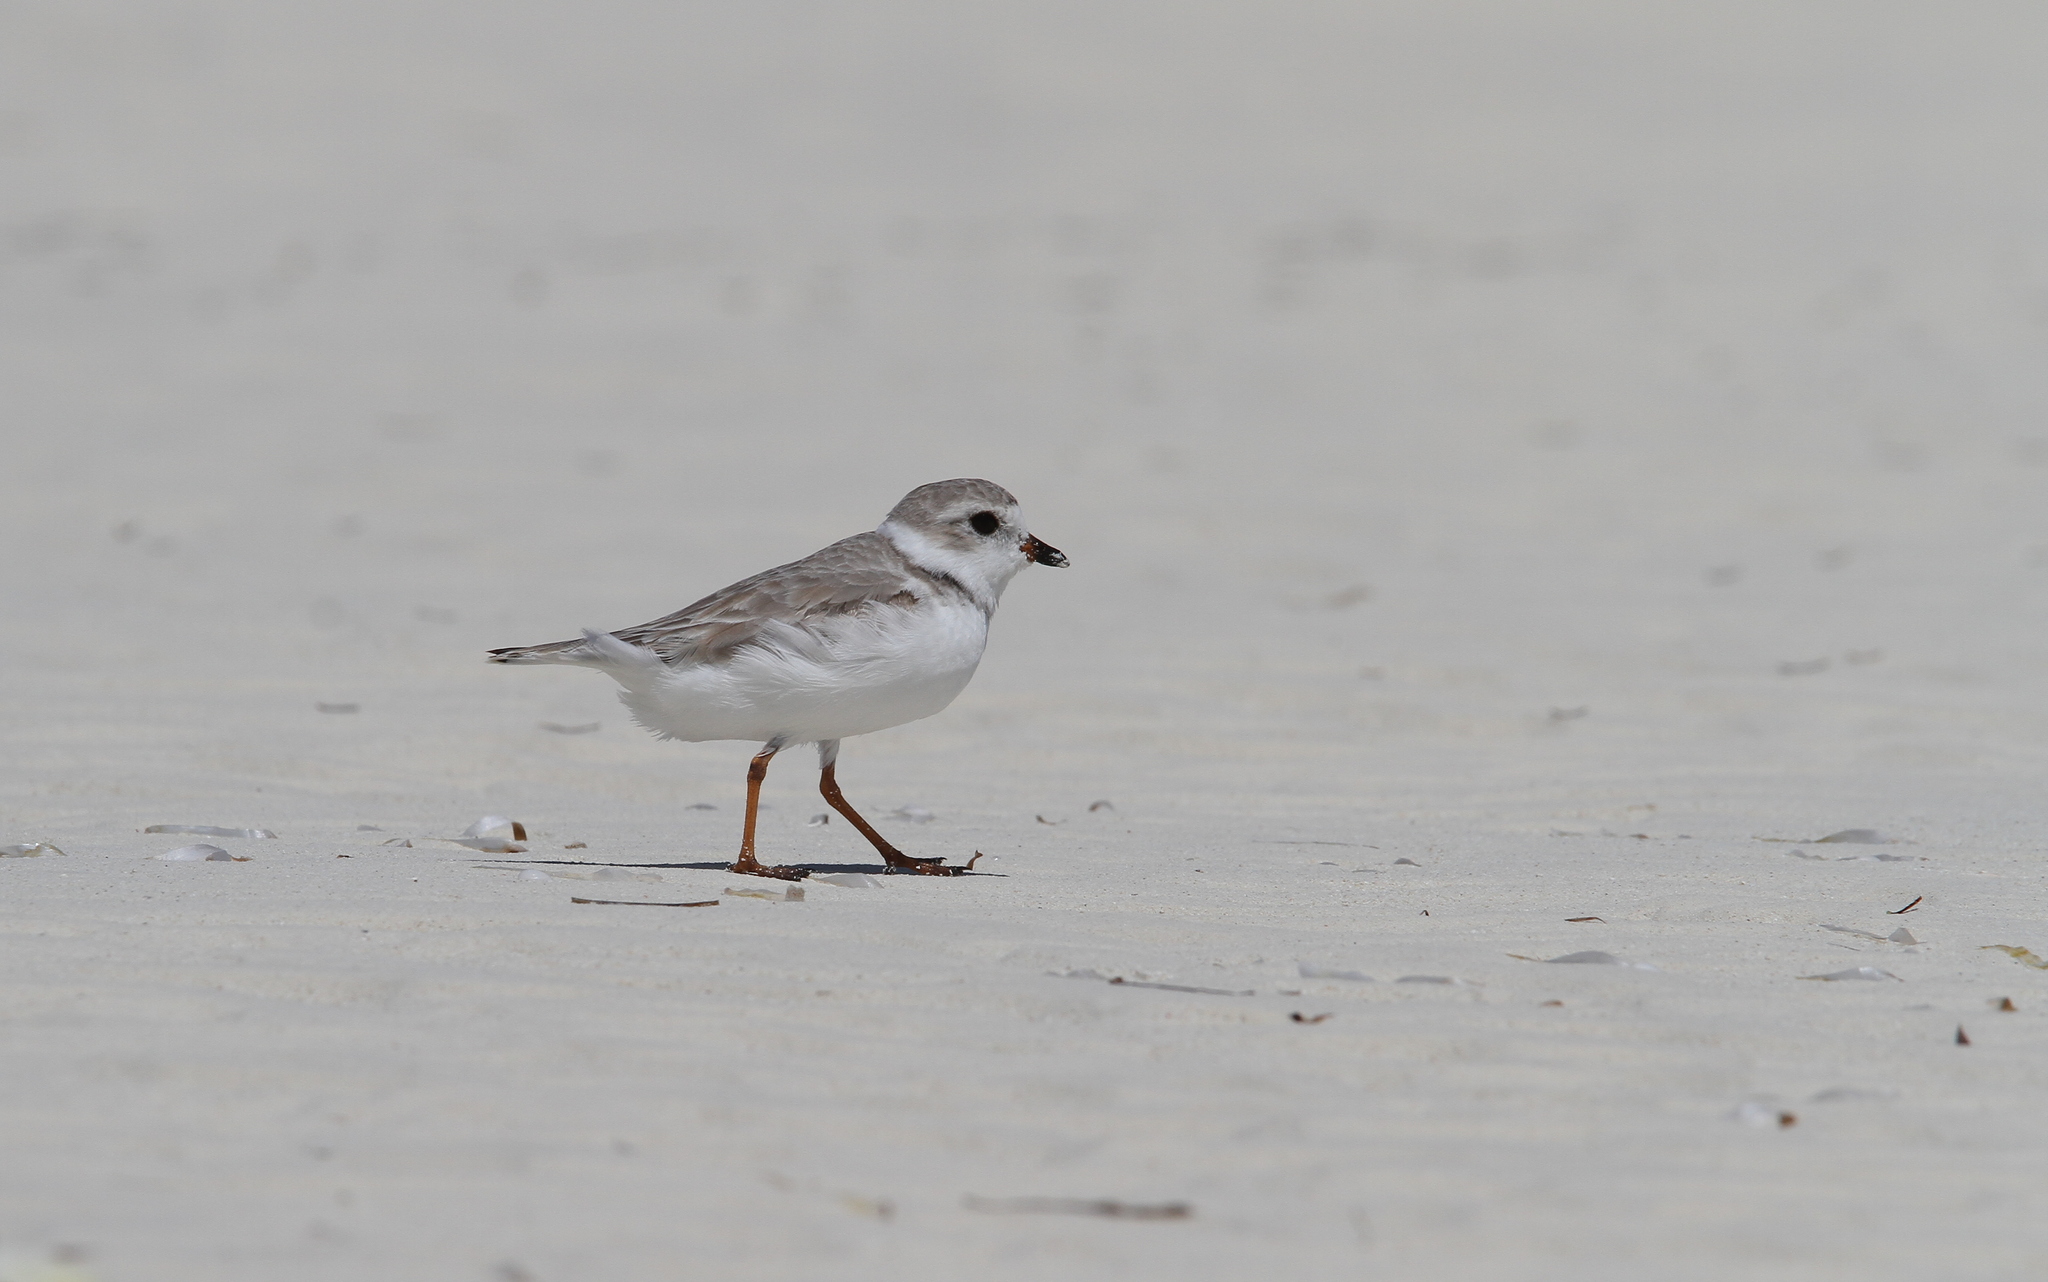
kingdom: Animalia
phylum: Chordata
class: Aves
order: Charadriiformes
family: Charadriidae
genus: Charadrius
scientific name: Charadrius melodus
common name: Piping plover
